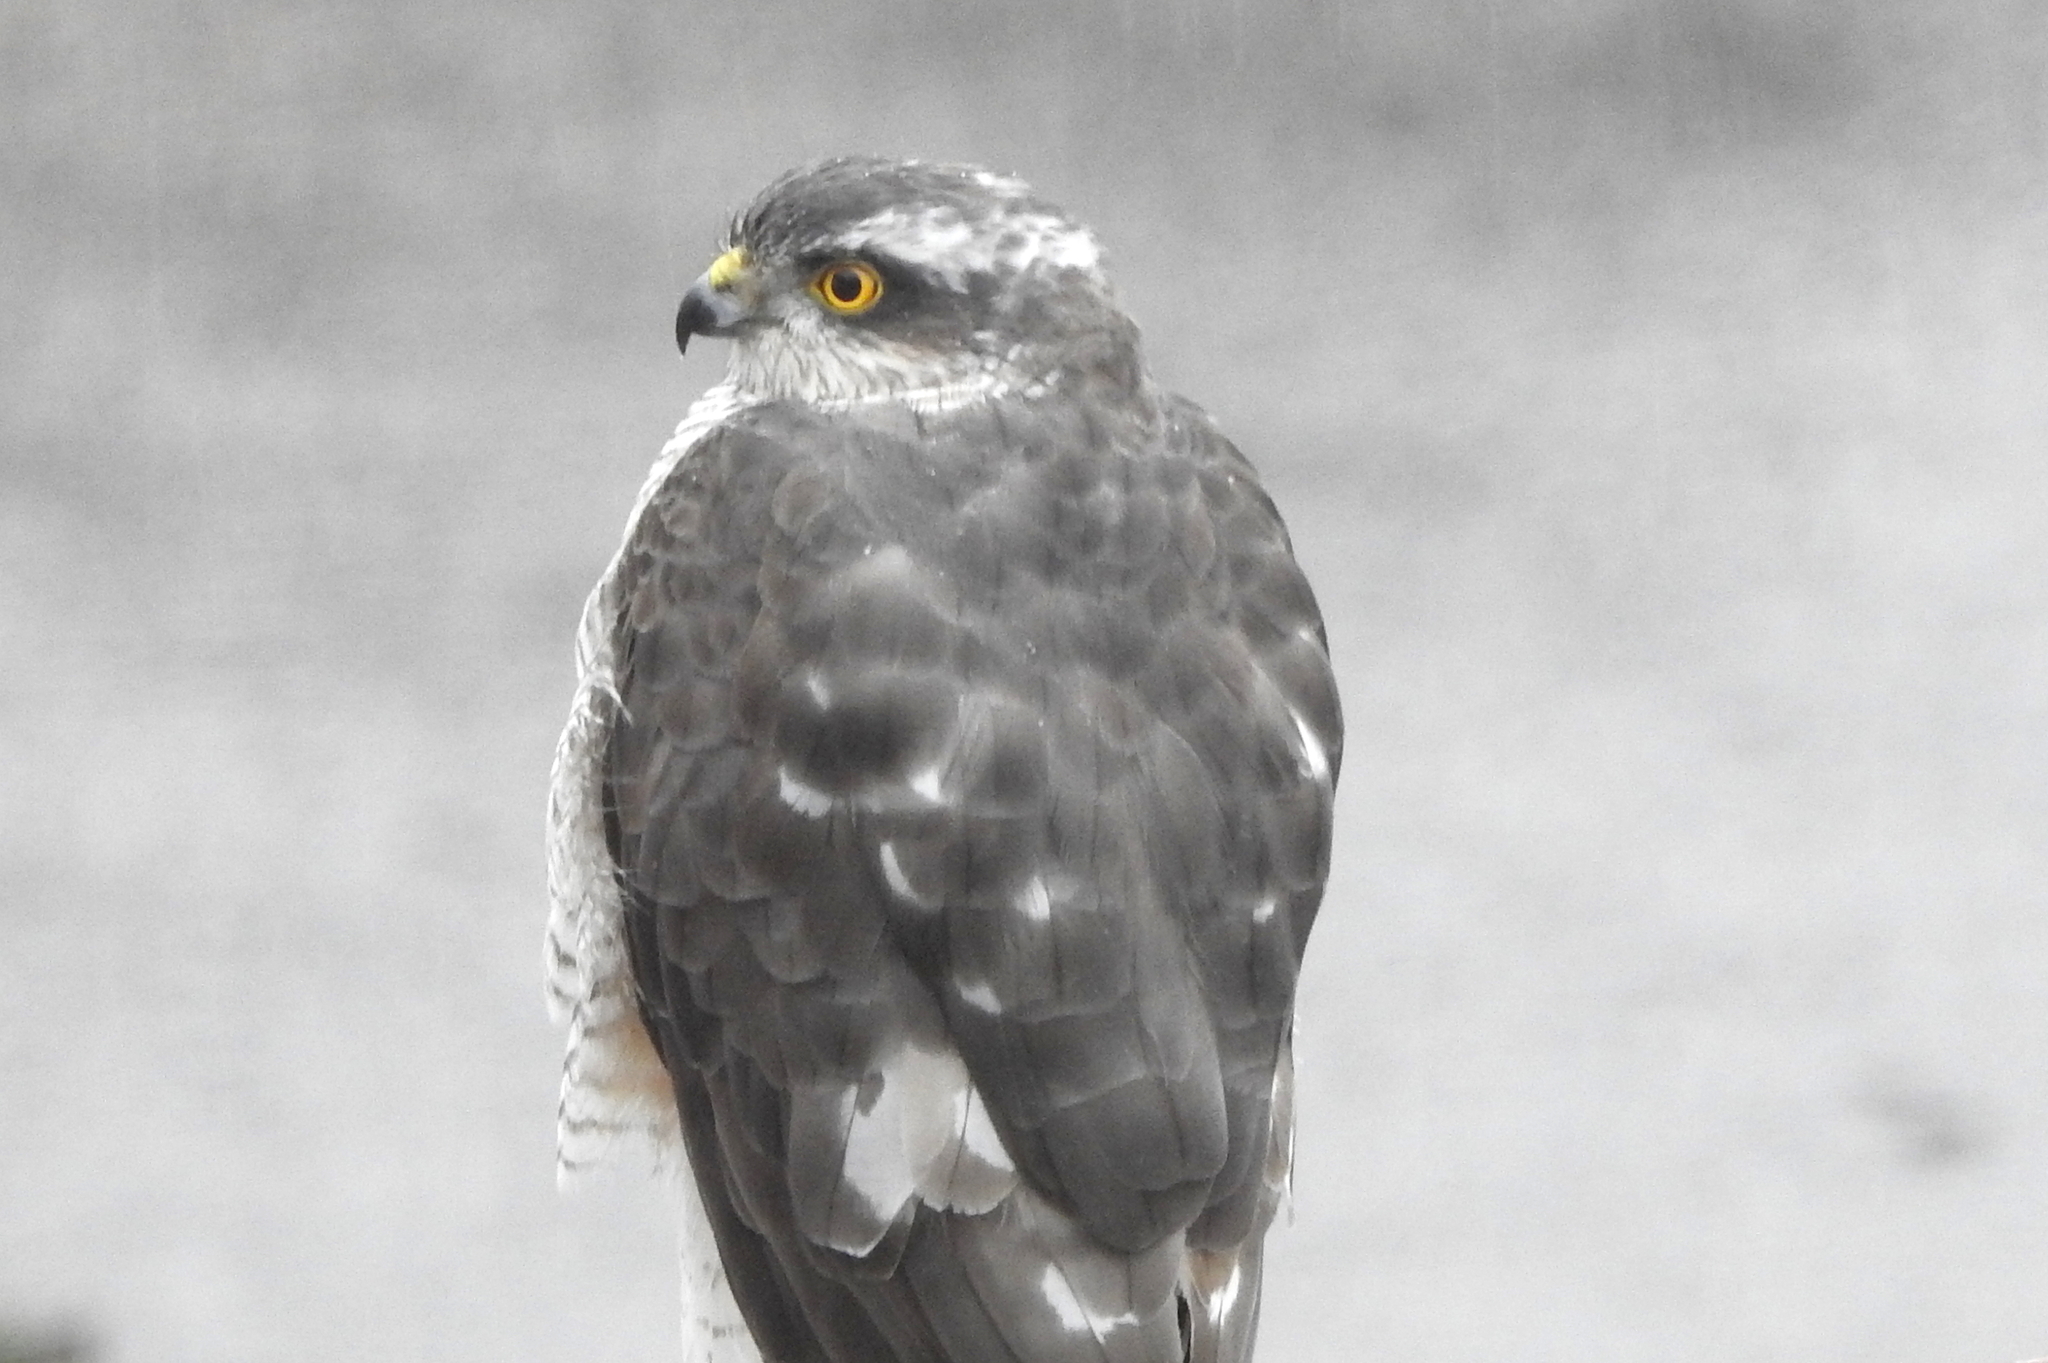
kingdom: Animalia
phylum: Chordata
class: Aves
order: Accipitriformes
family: Accipitridae
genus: Accipiter
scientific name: Accipiter nisus
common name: Eurasian sparrowhawk
